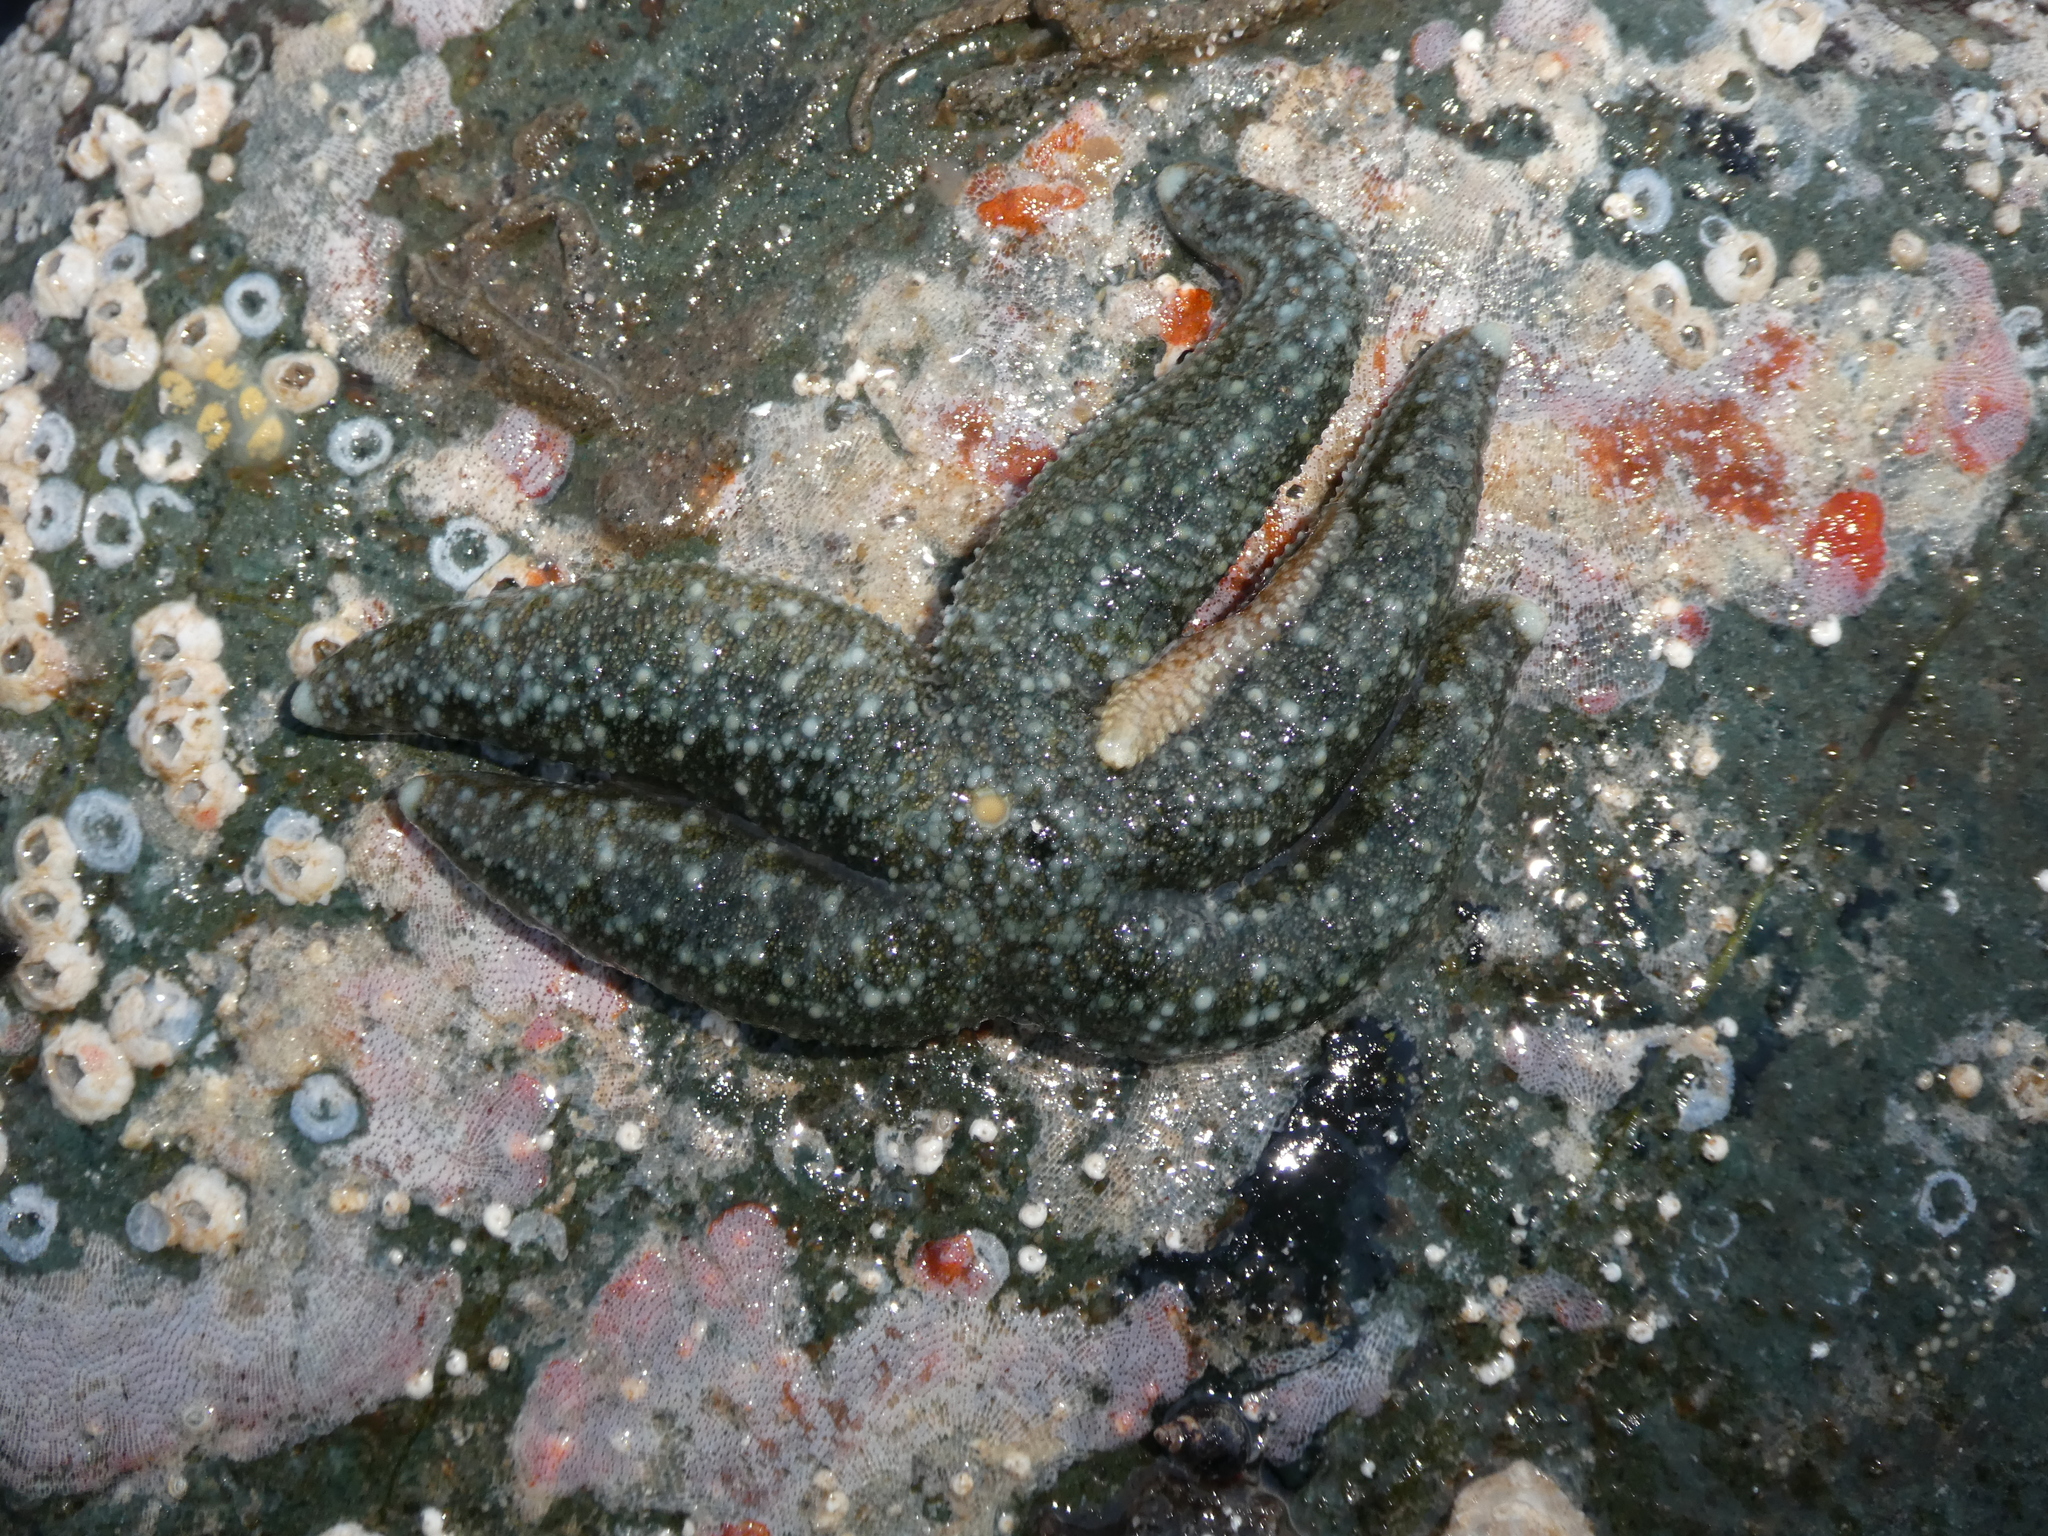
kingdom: Animalia
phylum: Echinodermata
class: Asteroidea
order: Forcipulatida
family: Asteriidae
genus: Evasterias
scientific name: Evasterias troschelii
